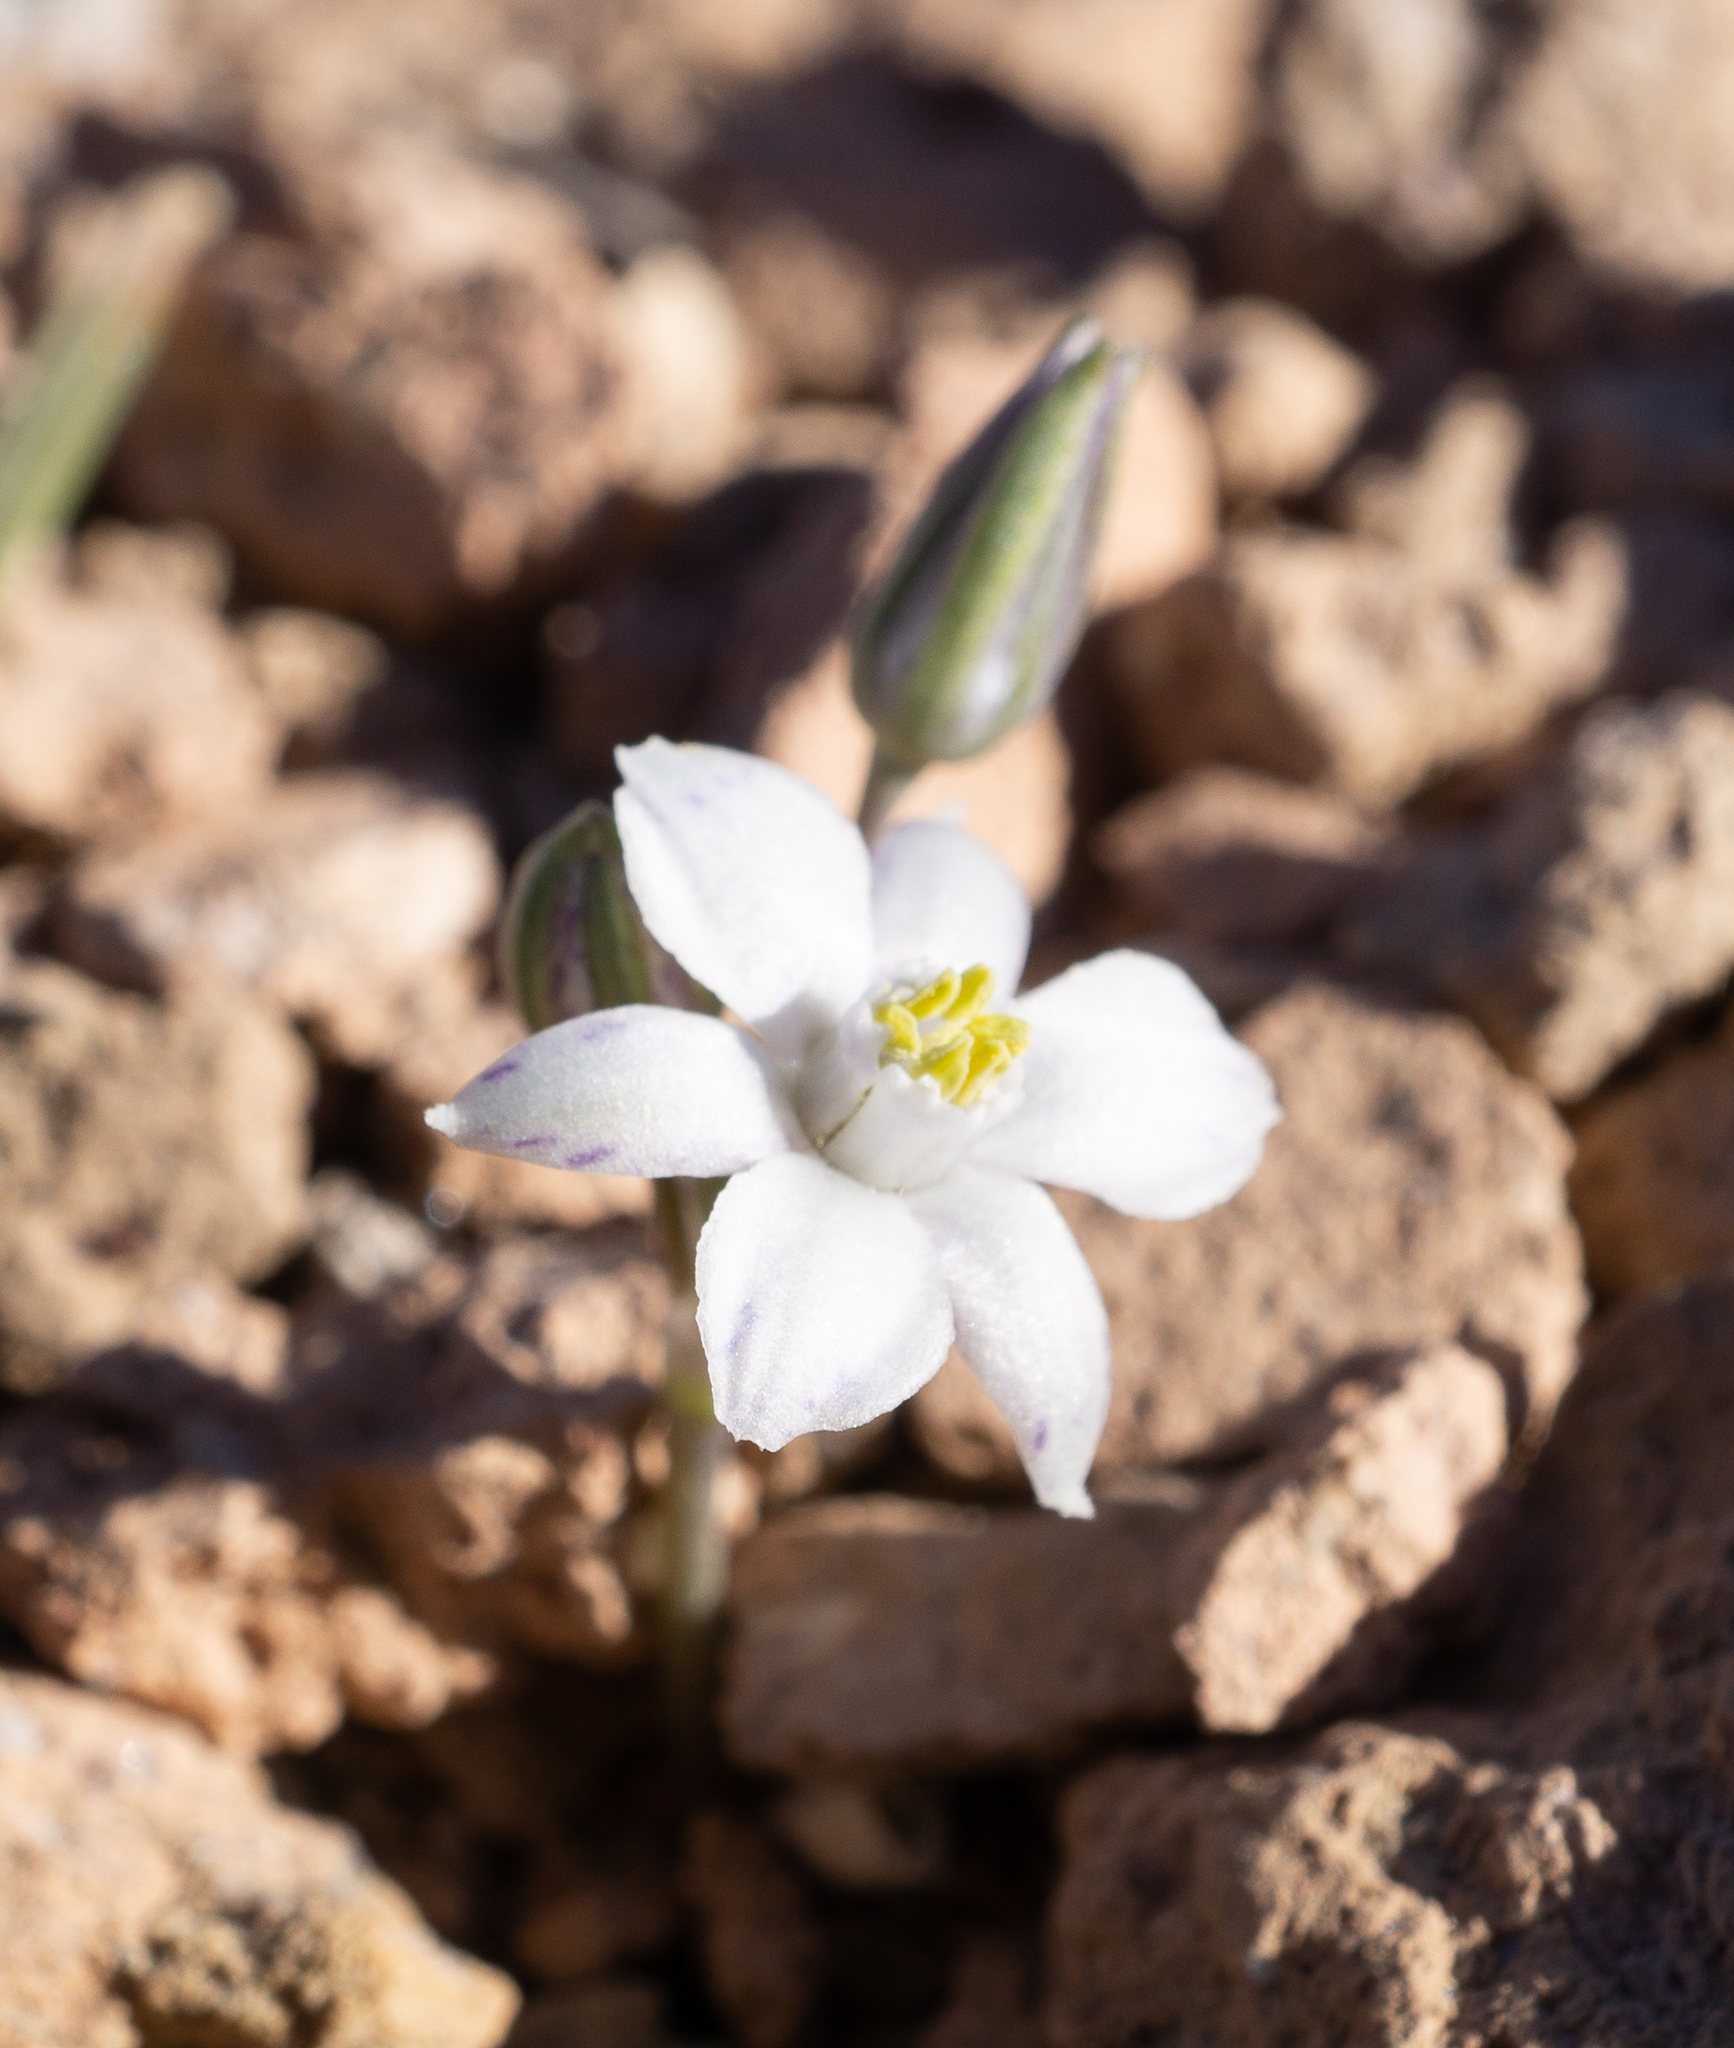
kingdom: Plantae
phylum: Tracheophyta
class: Liliopsida
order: Asparagales
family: Asparagaceae
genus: Muilla
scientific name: Muilla coronata
